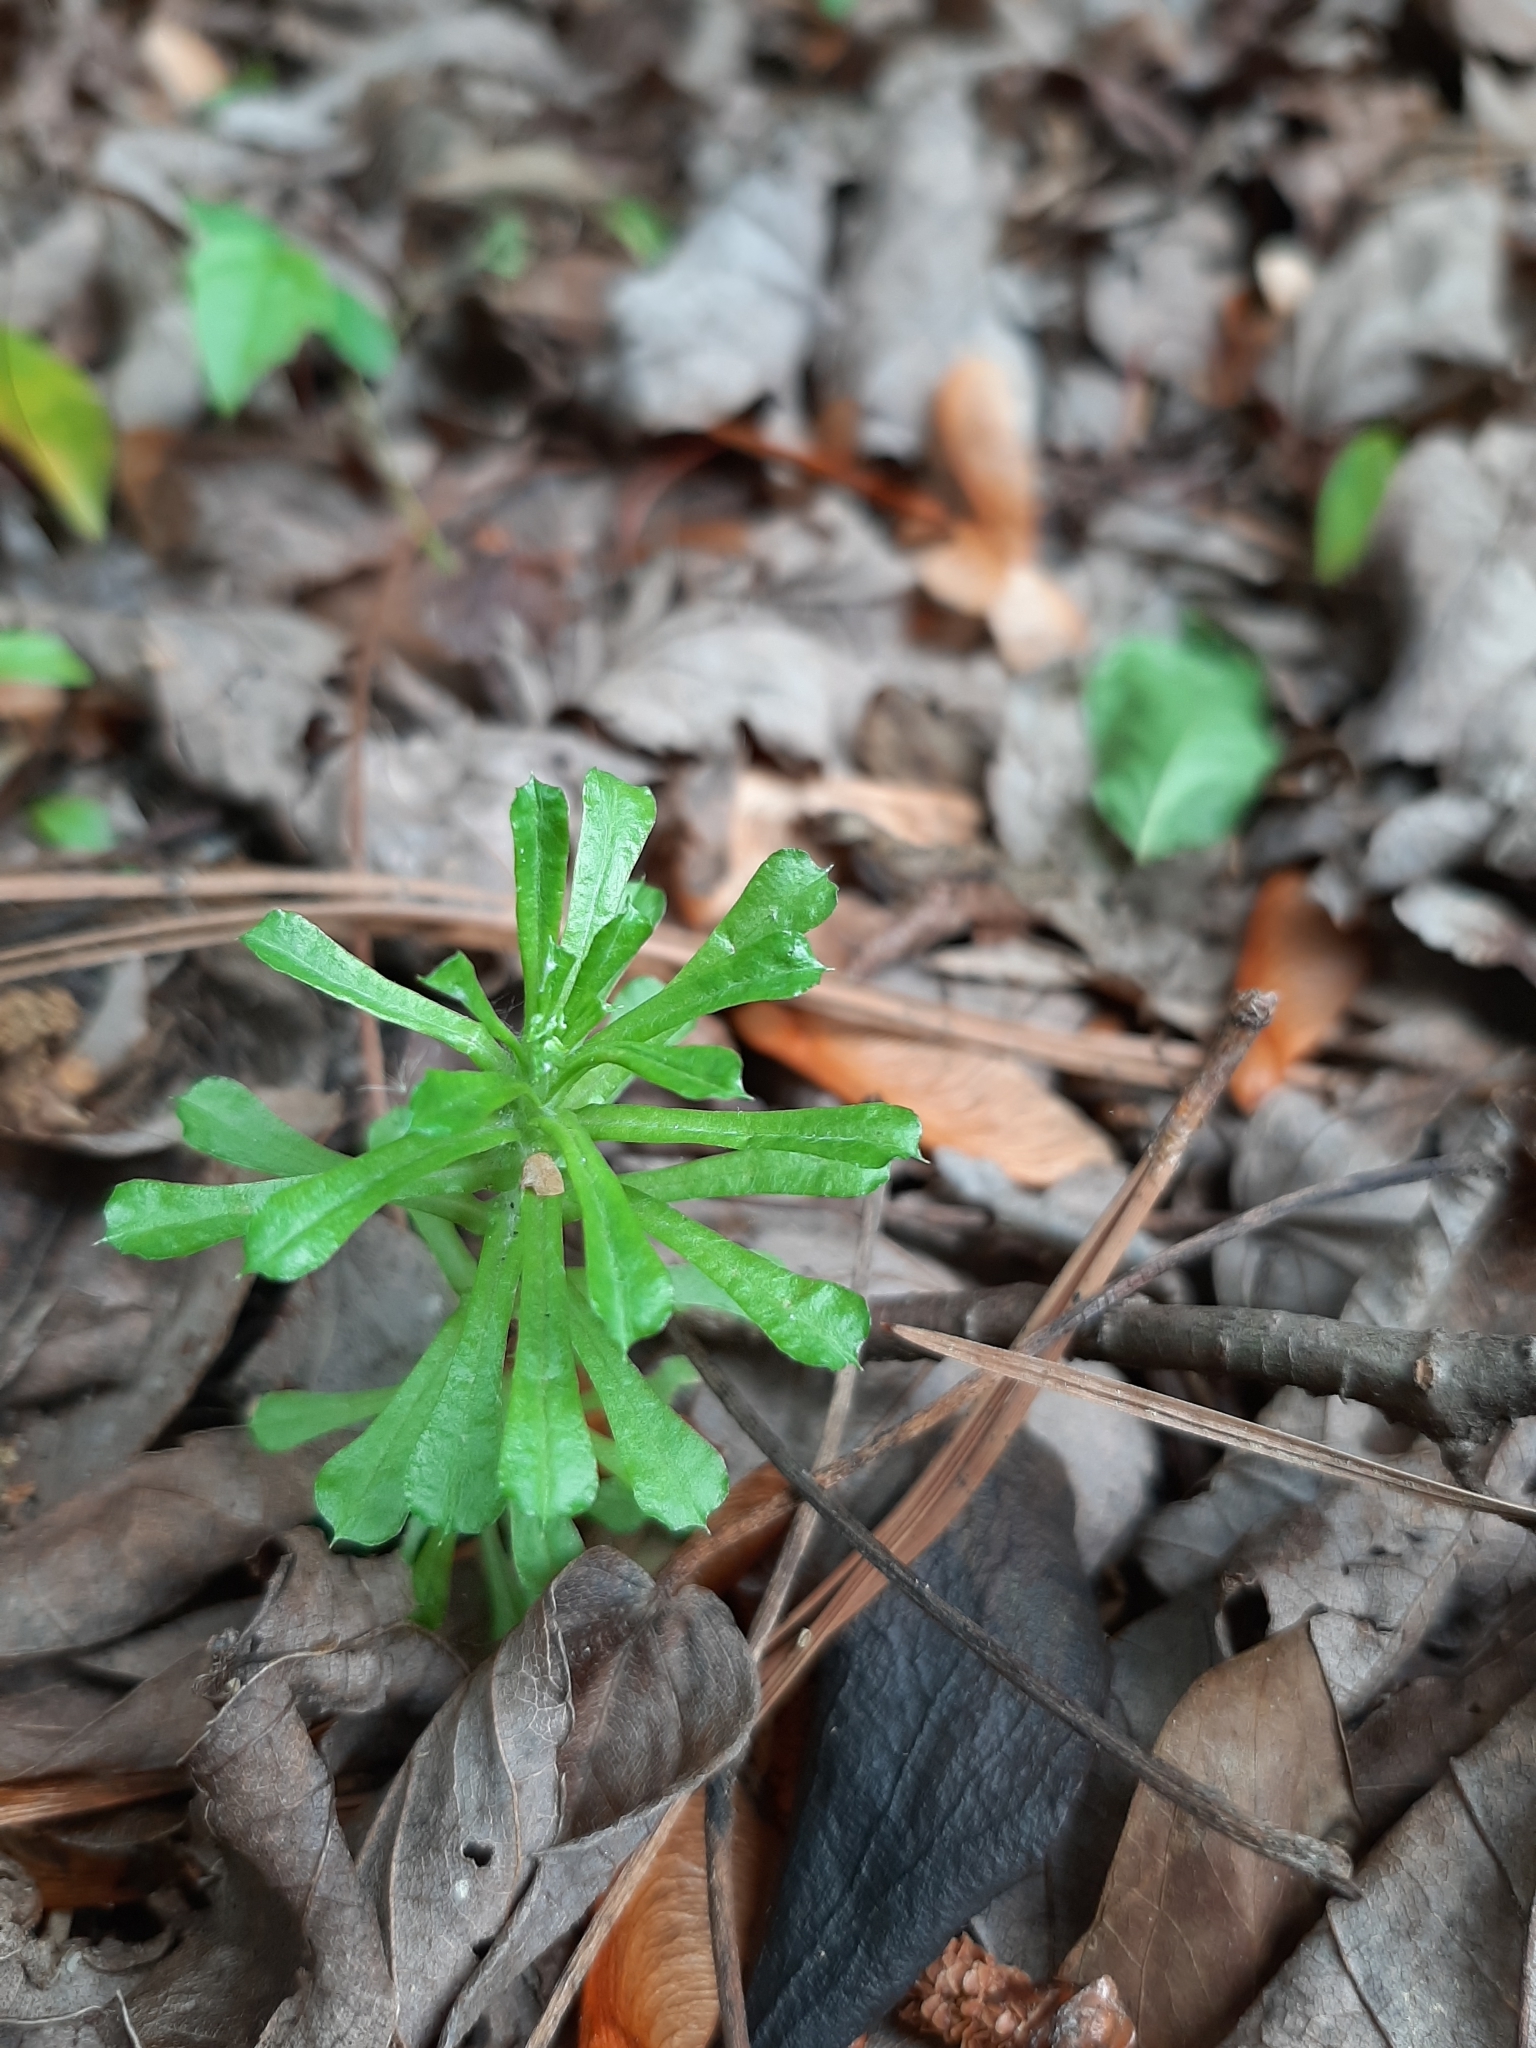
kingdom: Plantae
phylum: Tracheophyta
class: Magnoliopsida
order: Asterales
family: Asteraceae
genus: Facelis
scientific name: Facelis retusa
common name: Annual trampweed
